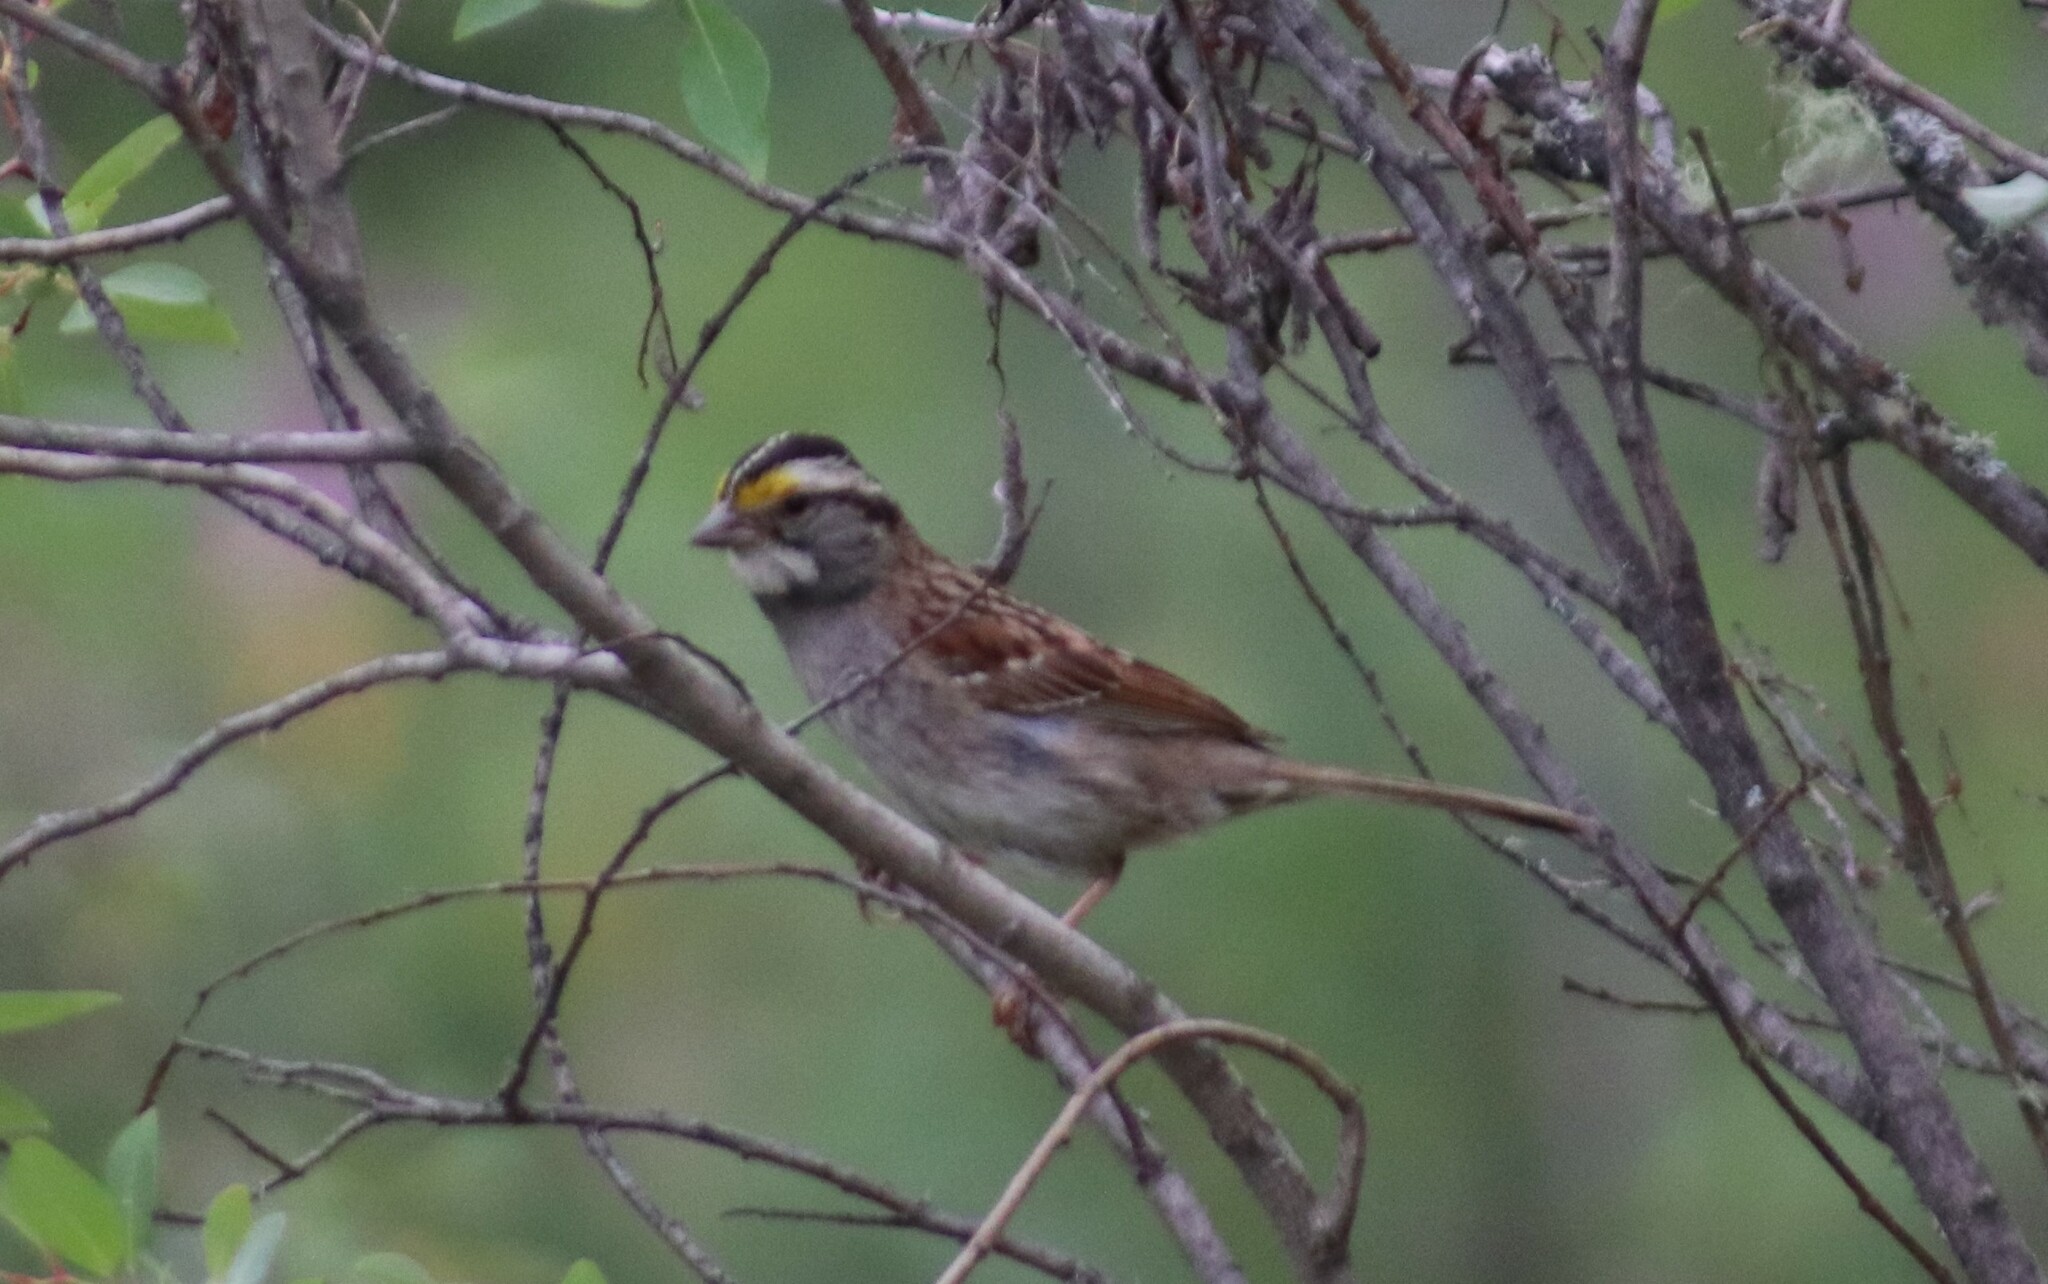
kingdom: Animalia
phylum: Chordata
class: Aves
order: Passeriformes
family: Passerellidae
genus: Zonotrichia
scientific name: Zonotrichia albicollis
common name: White-throated sparrow
